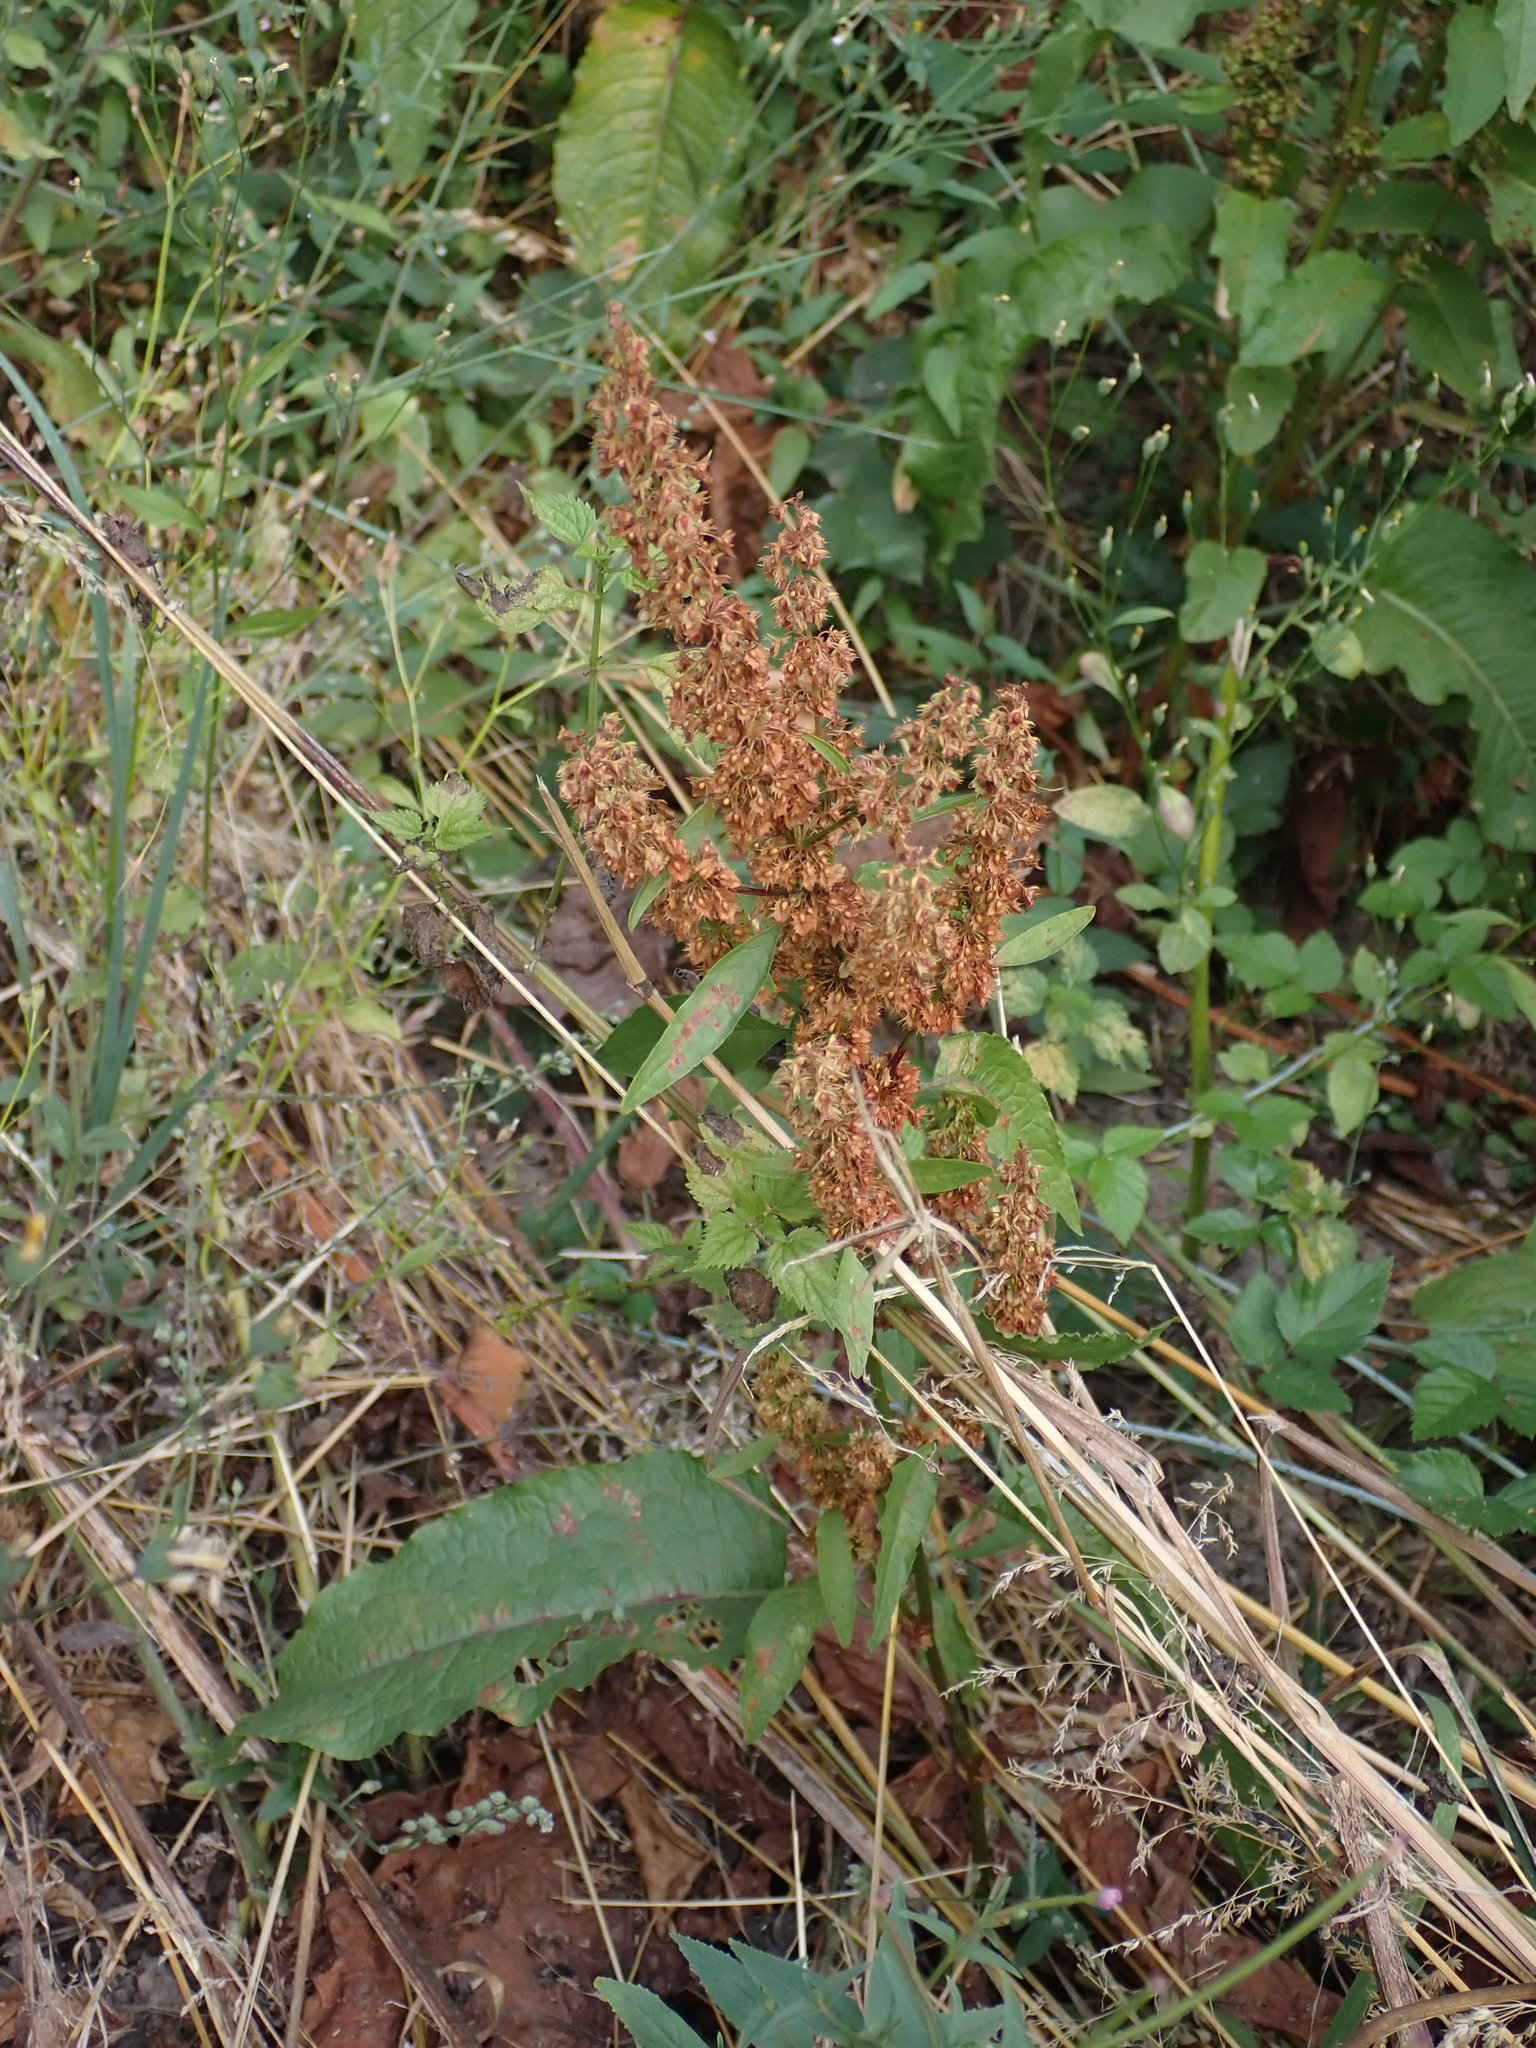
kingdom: Plantae
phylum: Tracheophyta
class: Magnoliopsida
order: Caryophyllales
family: Polygonaceae
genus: Rumex
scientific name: Rumex obtusifolius
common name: Bitter dock
